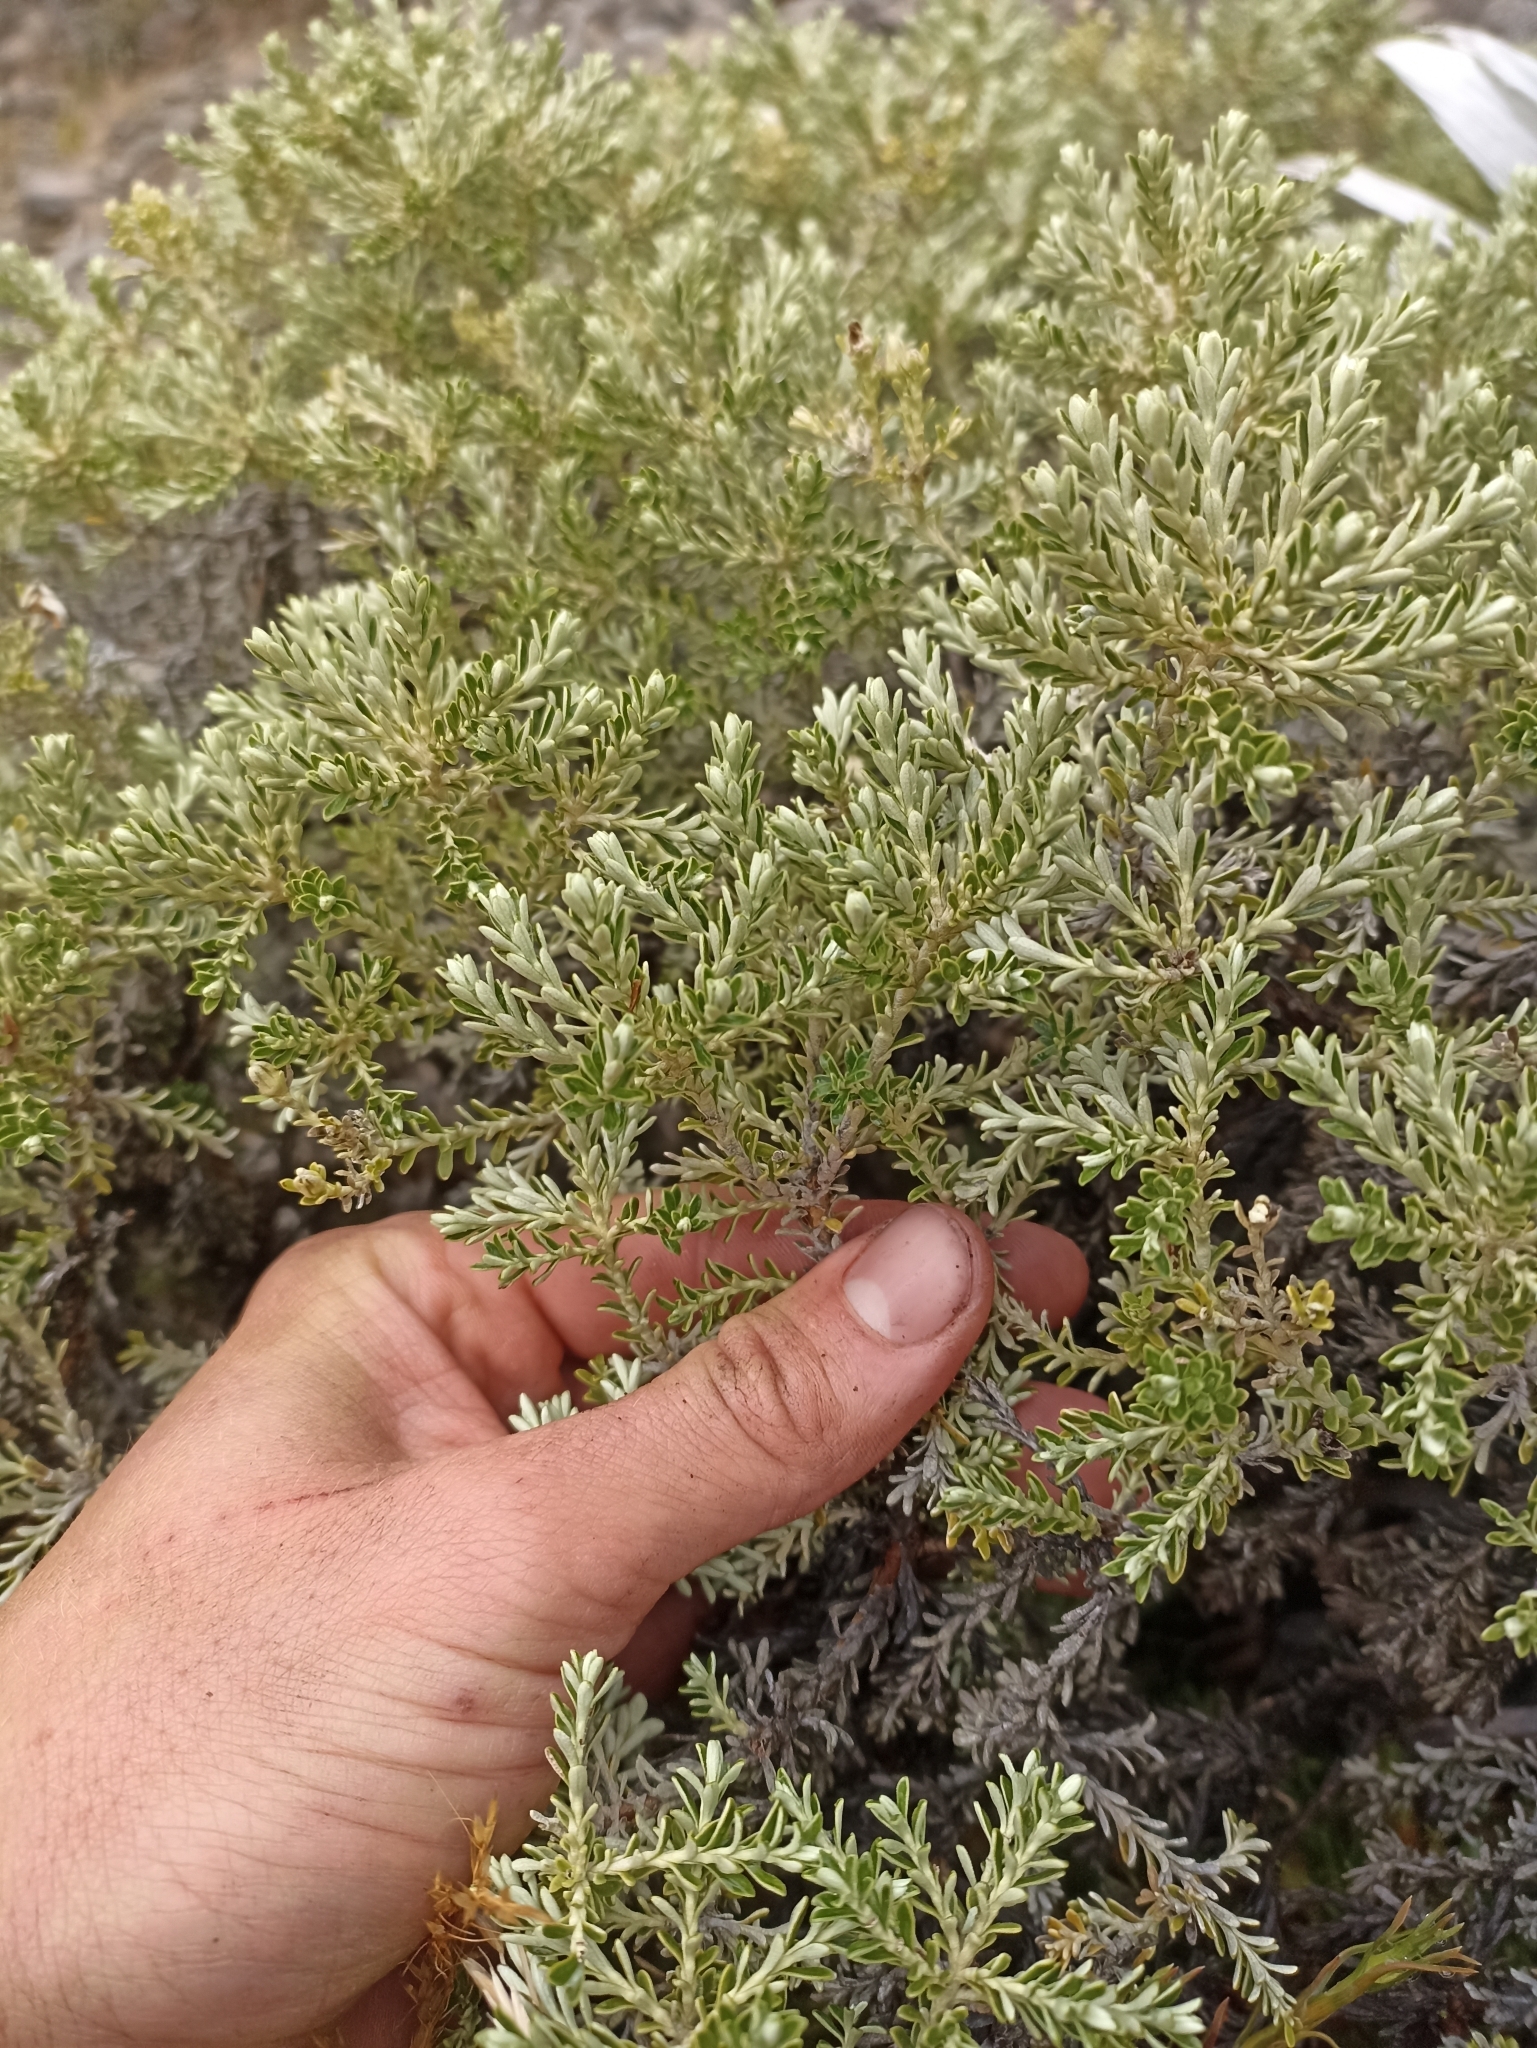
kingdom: Plantae
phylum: Tracheophyta
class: Magnoliopsida
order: Asterales
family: Asteraceae
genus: Brachyglottis
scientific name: Brachyglottis cassinioides
